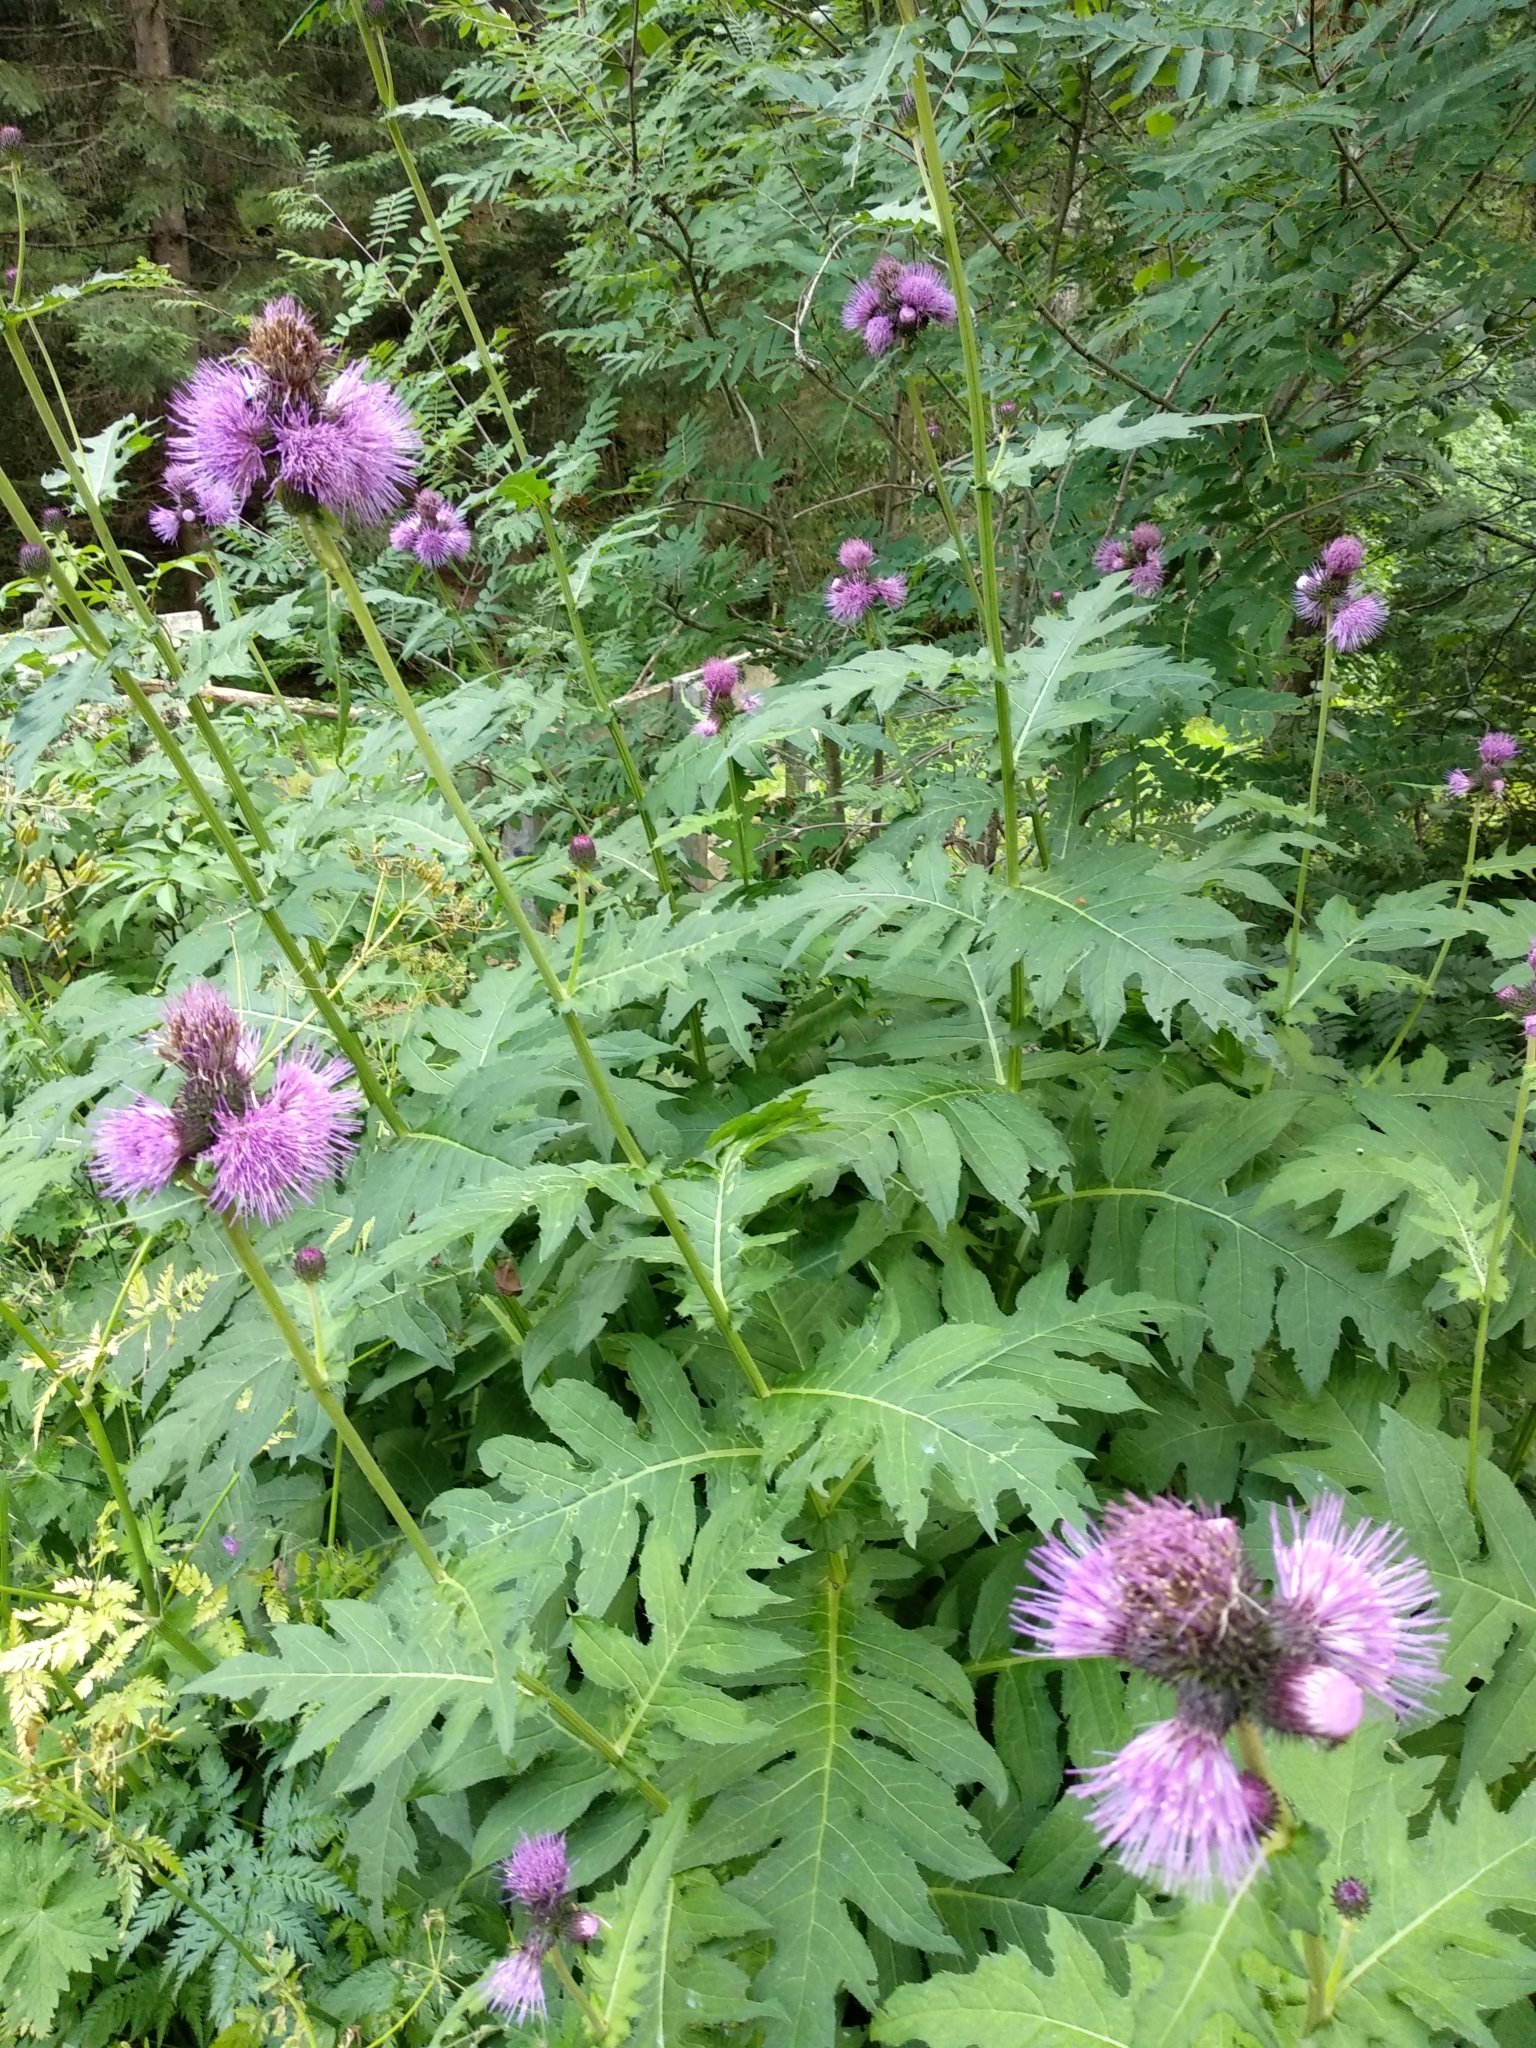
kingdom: Plantae
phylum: Tracheophyta
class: Magnoliopsida
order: Asterales
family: Asteraceae
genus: Cirsium
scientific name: Cirsium alsophilum
